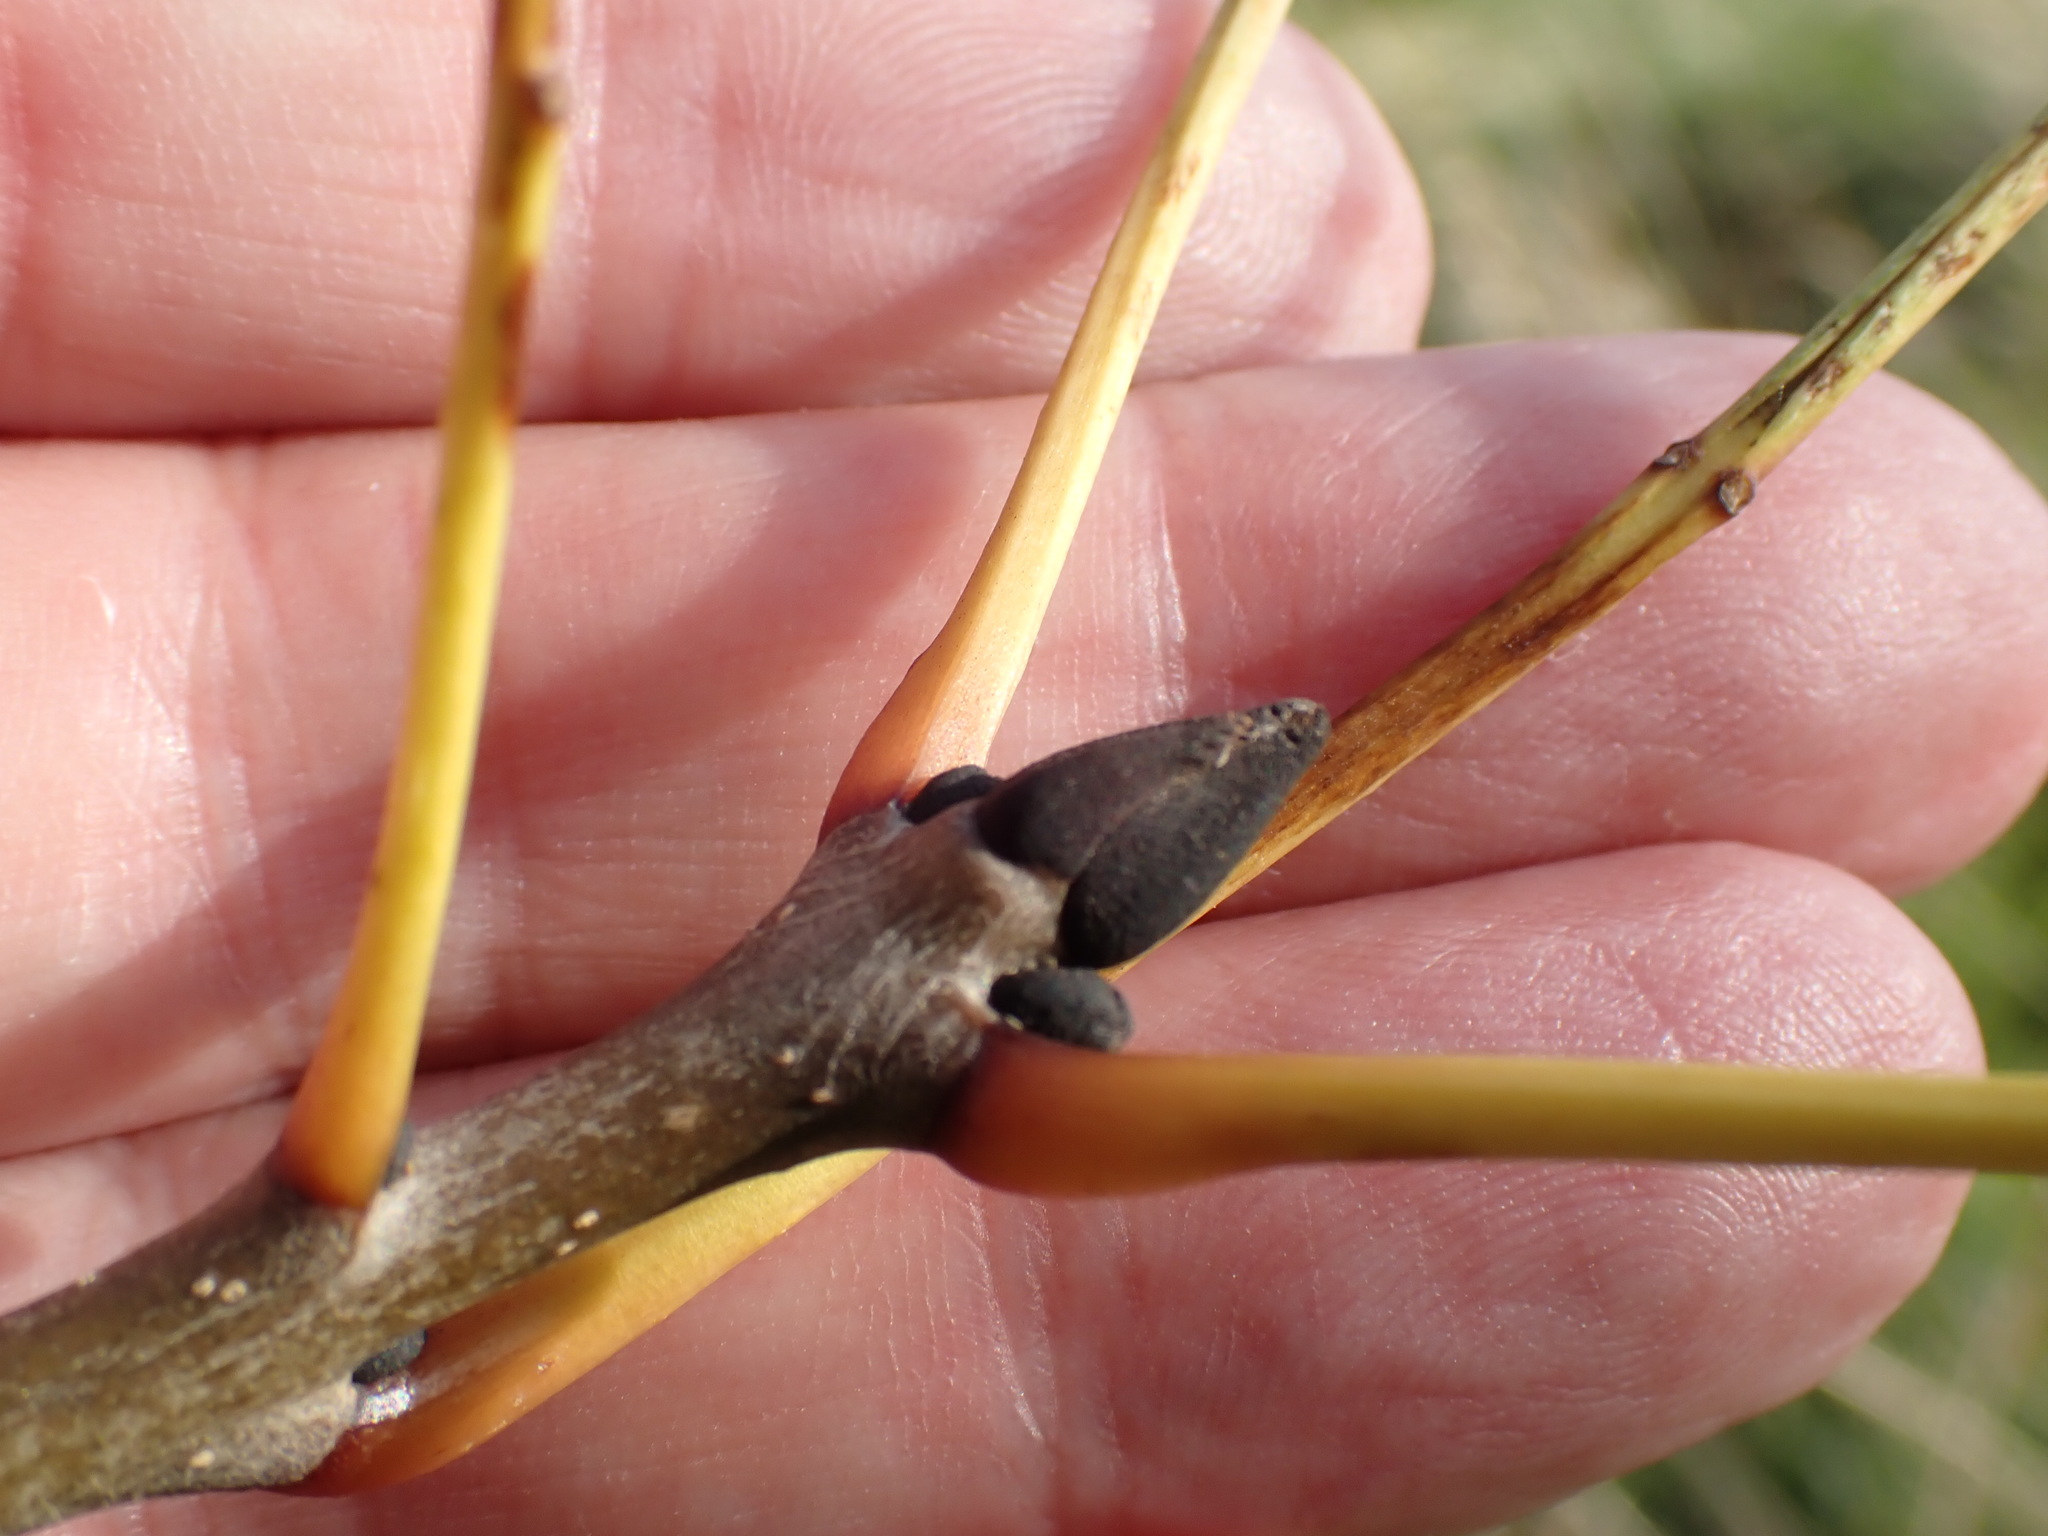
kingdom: Plantae
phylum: Tracheophyta
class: Magnoliopsida
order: Lamiales
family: Oleaceae
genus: Fraxinus
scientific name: Fraxinus excelsior
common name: European ash
